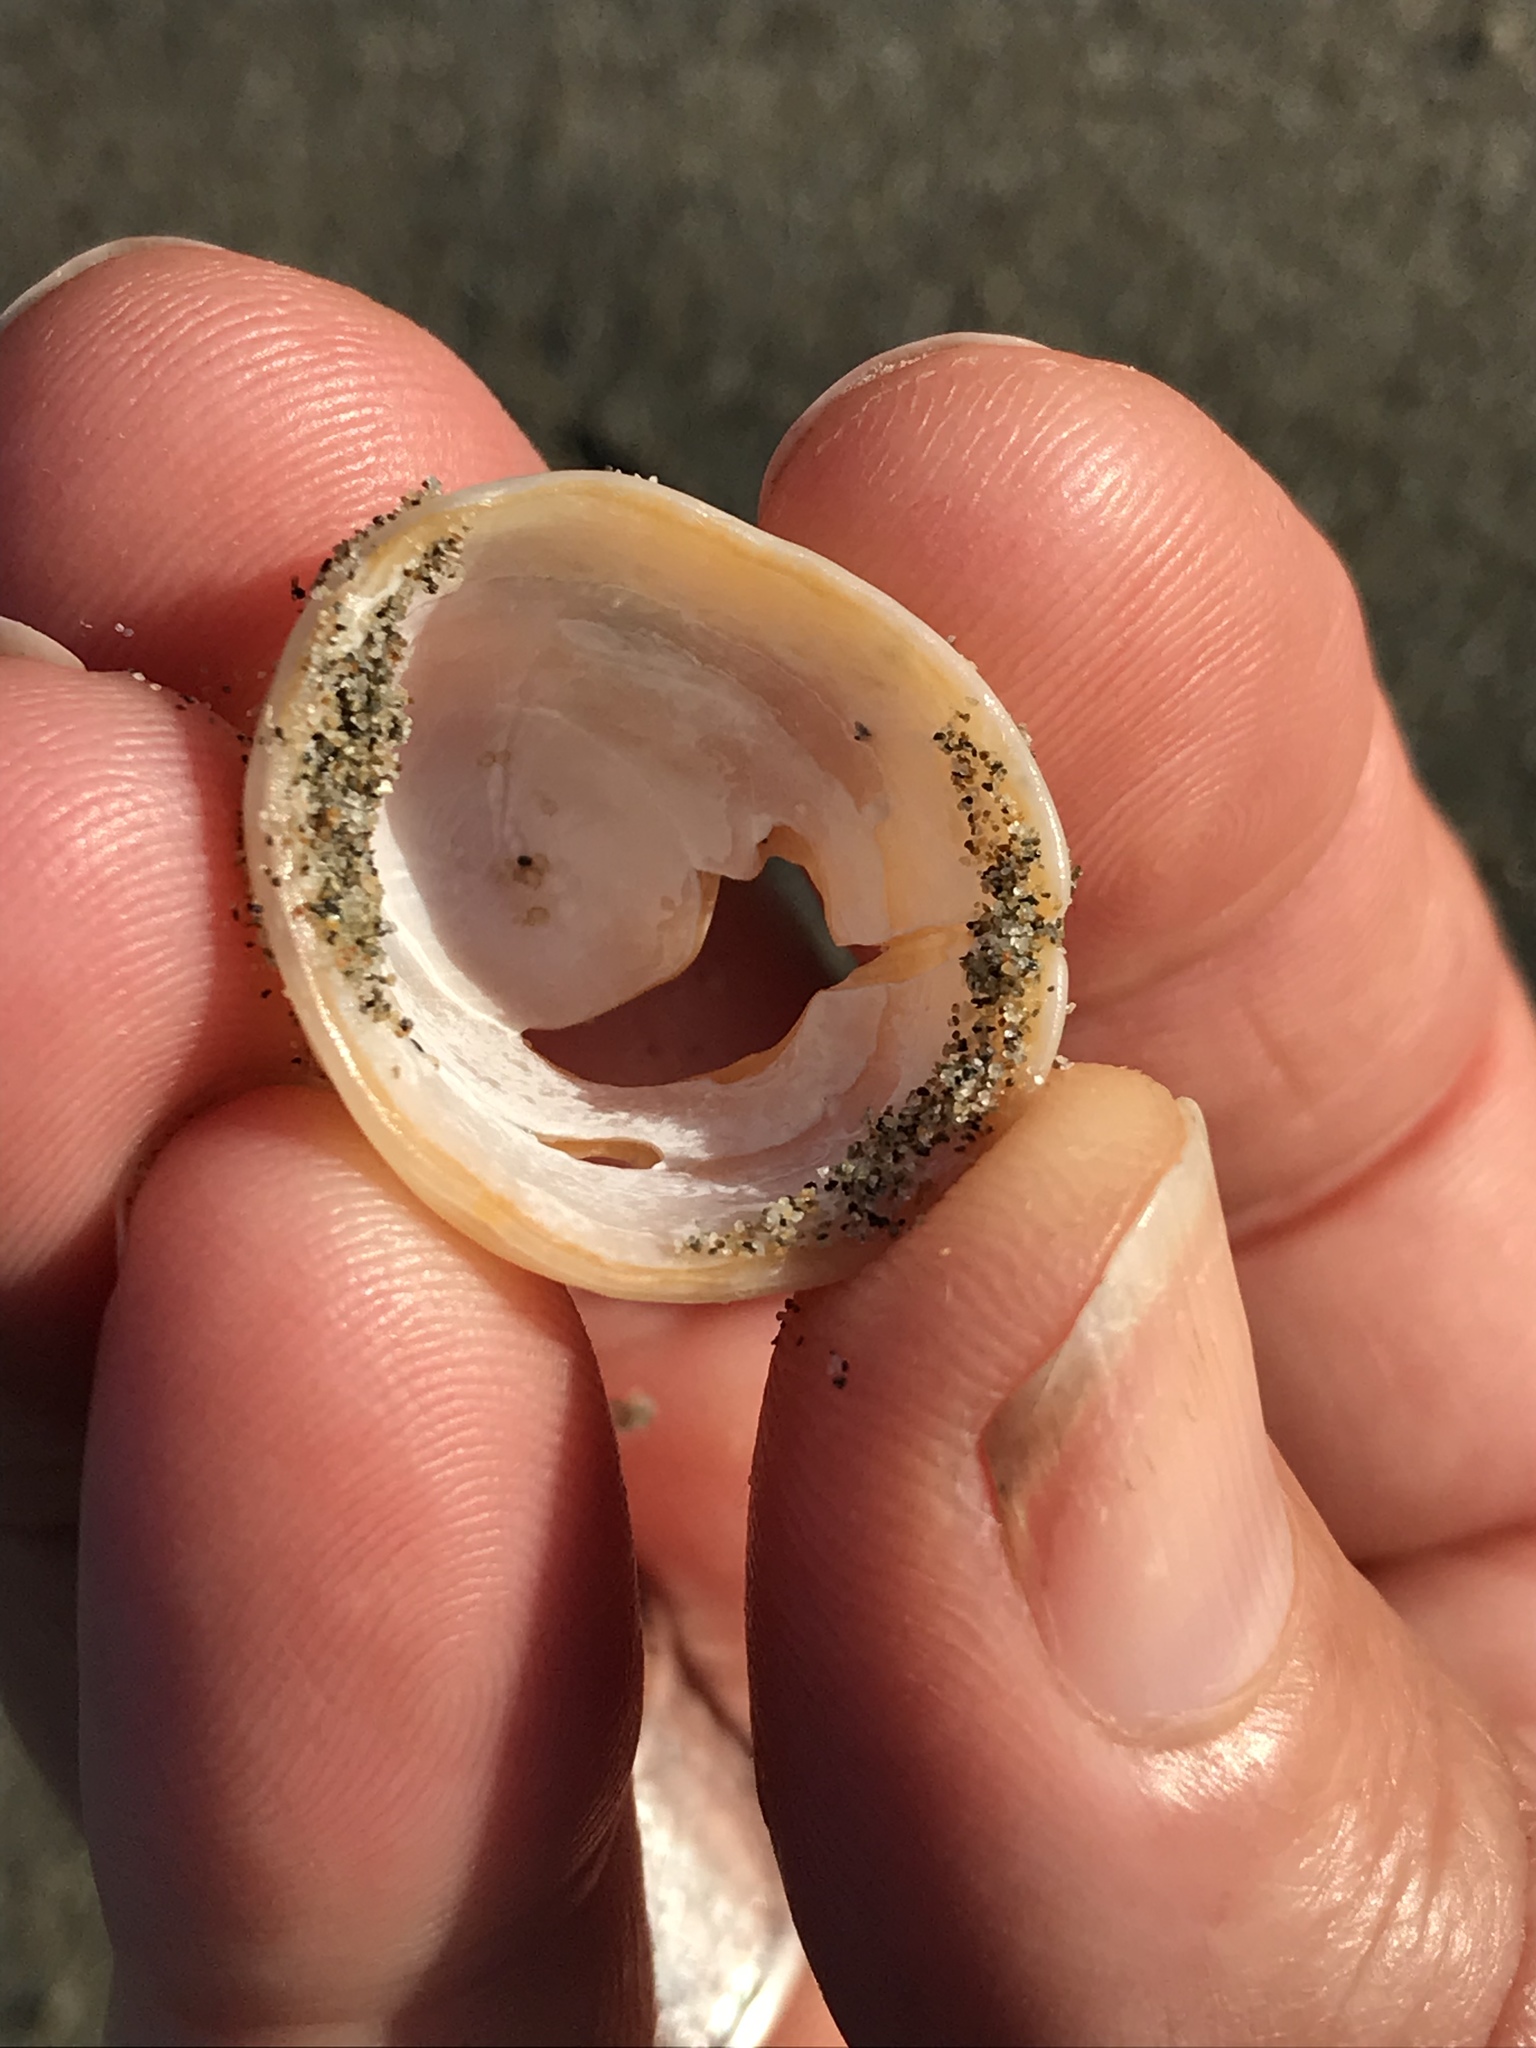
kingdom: Animalia
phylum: Mollusca
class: Gastropoda
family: Acmaeidae
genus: Acmaea
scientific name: Acmaea mitra
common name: Pacific white cap limpet
